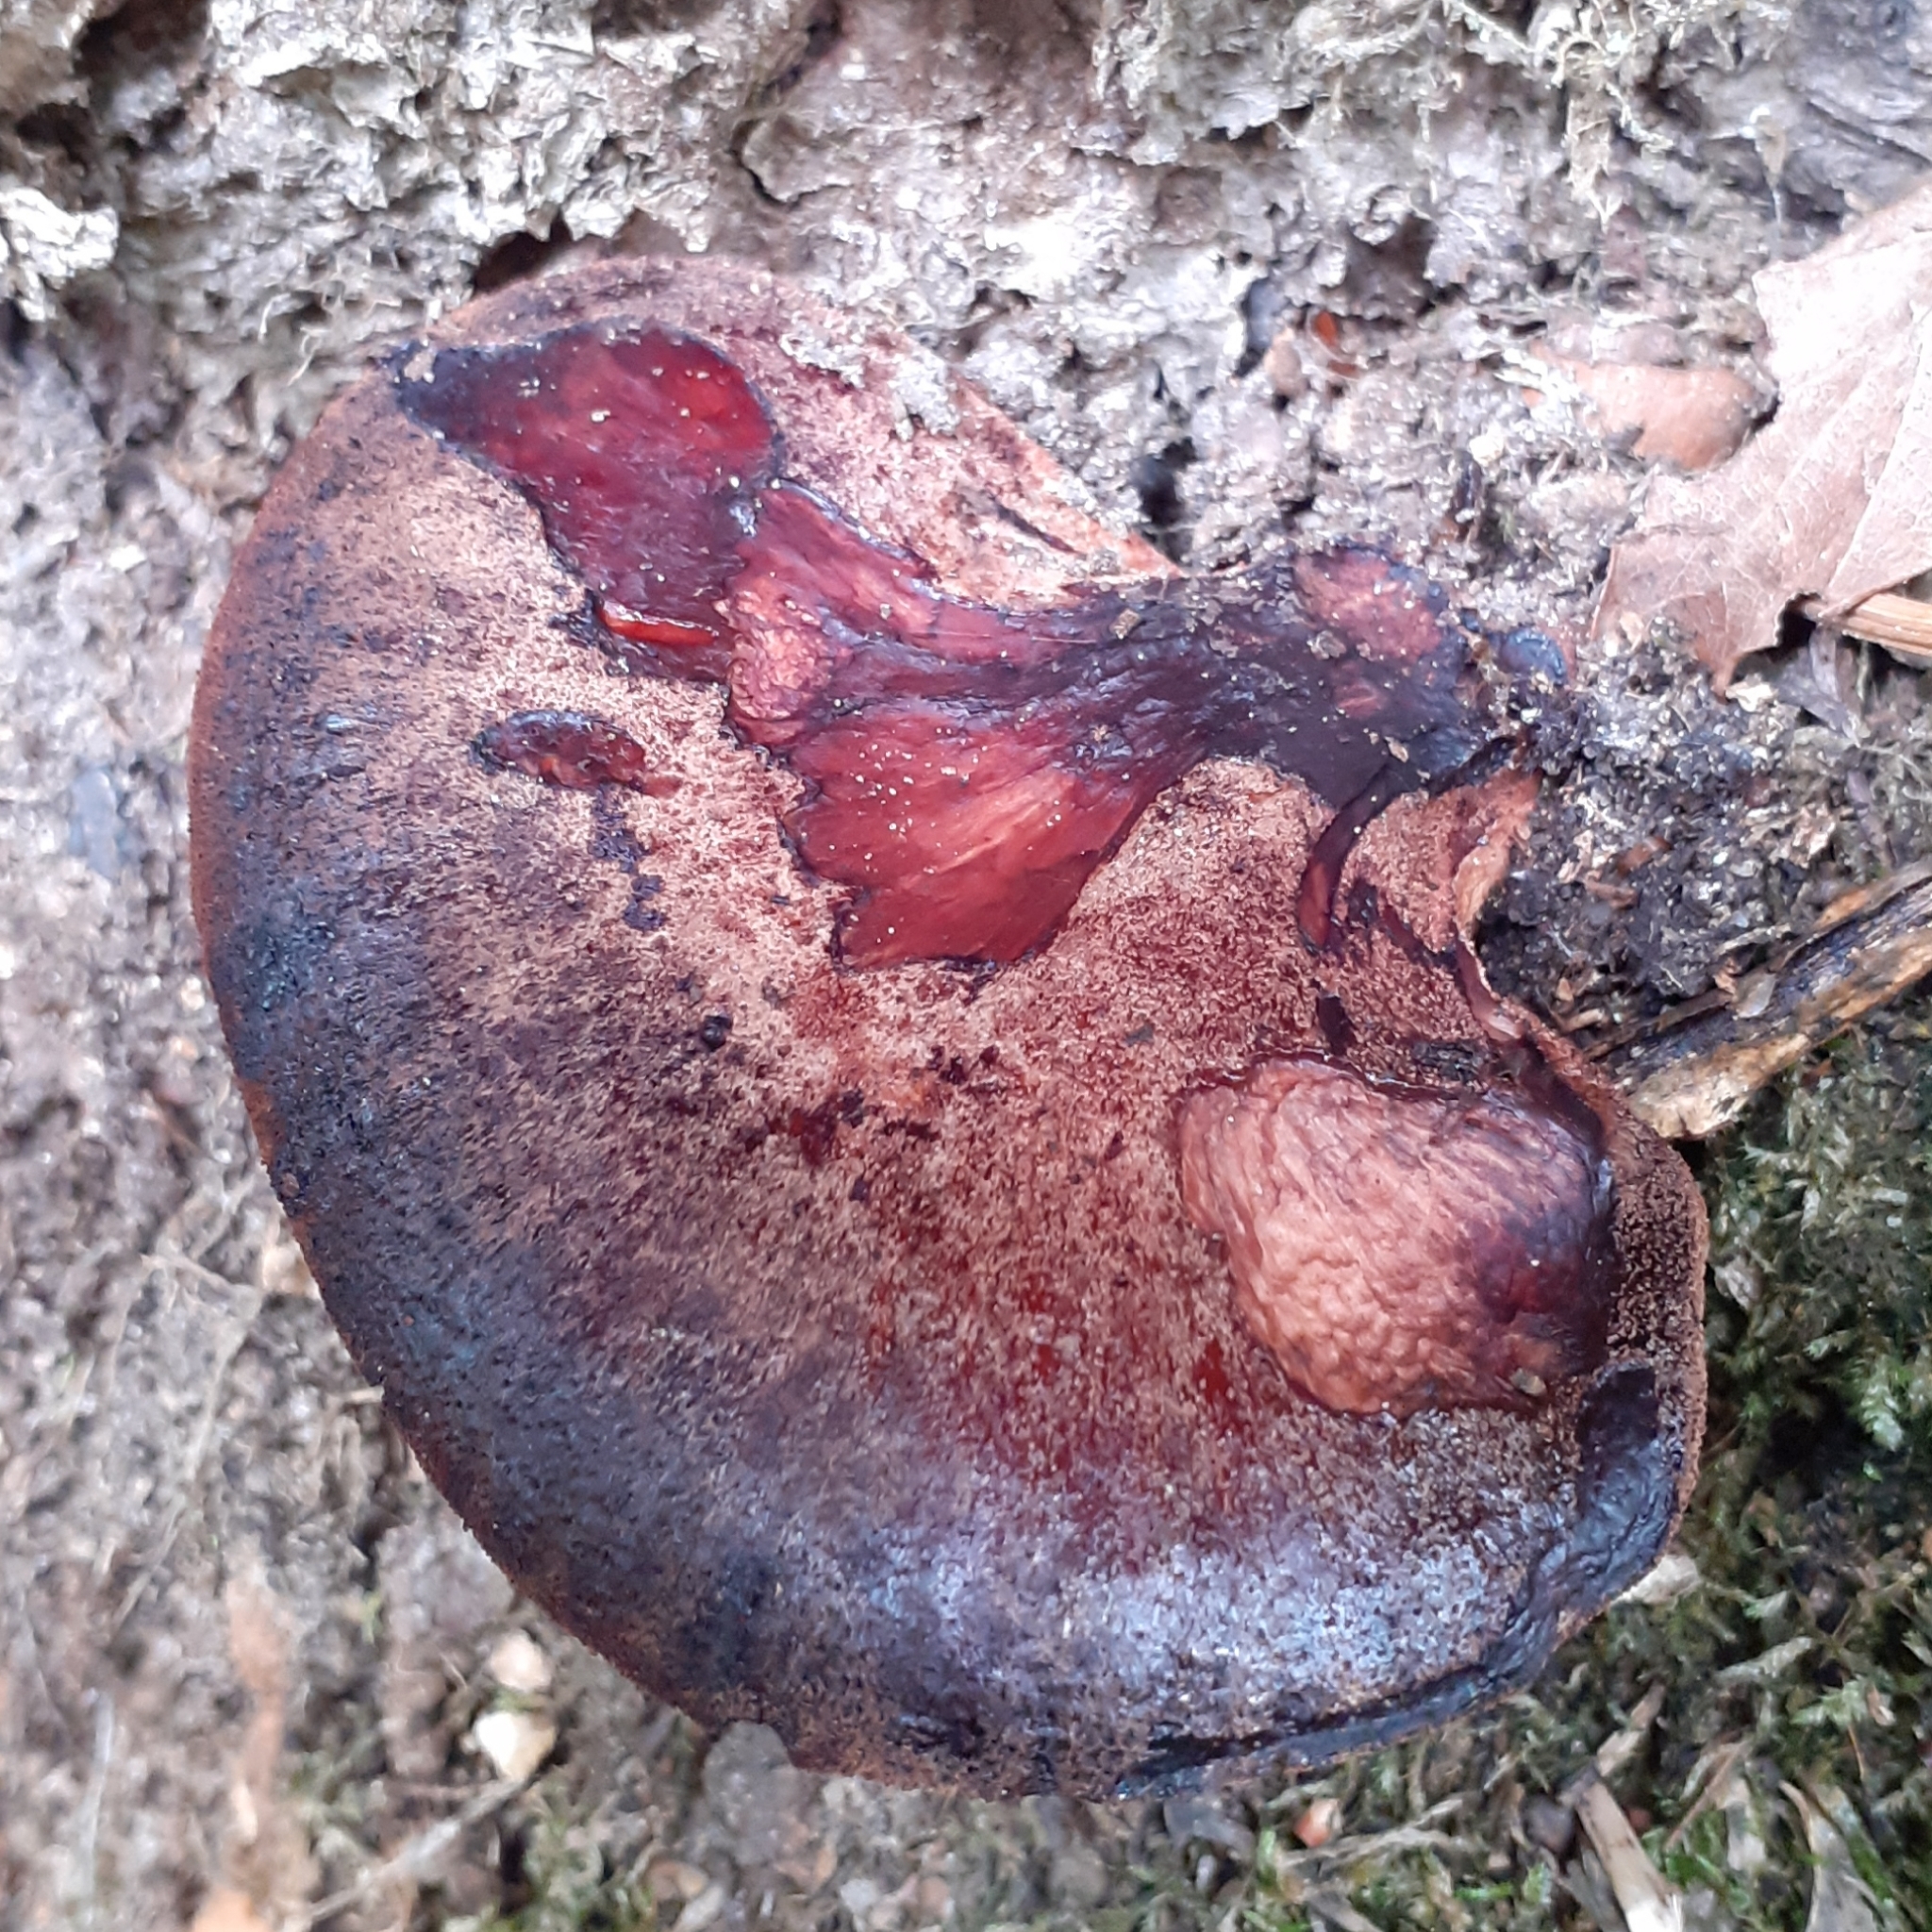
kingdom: Fungi
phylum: Basidiomycota
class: Agaricomycetes
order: Agaricales
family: Fistulinaceae
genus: Fistulina
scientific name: Fistulina hepatica
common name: Beef-steak fungus
